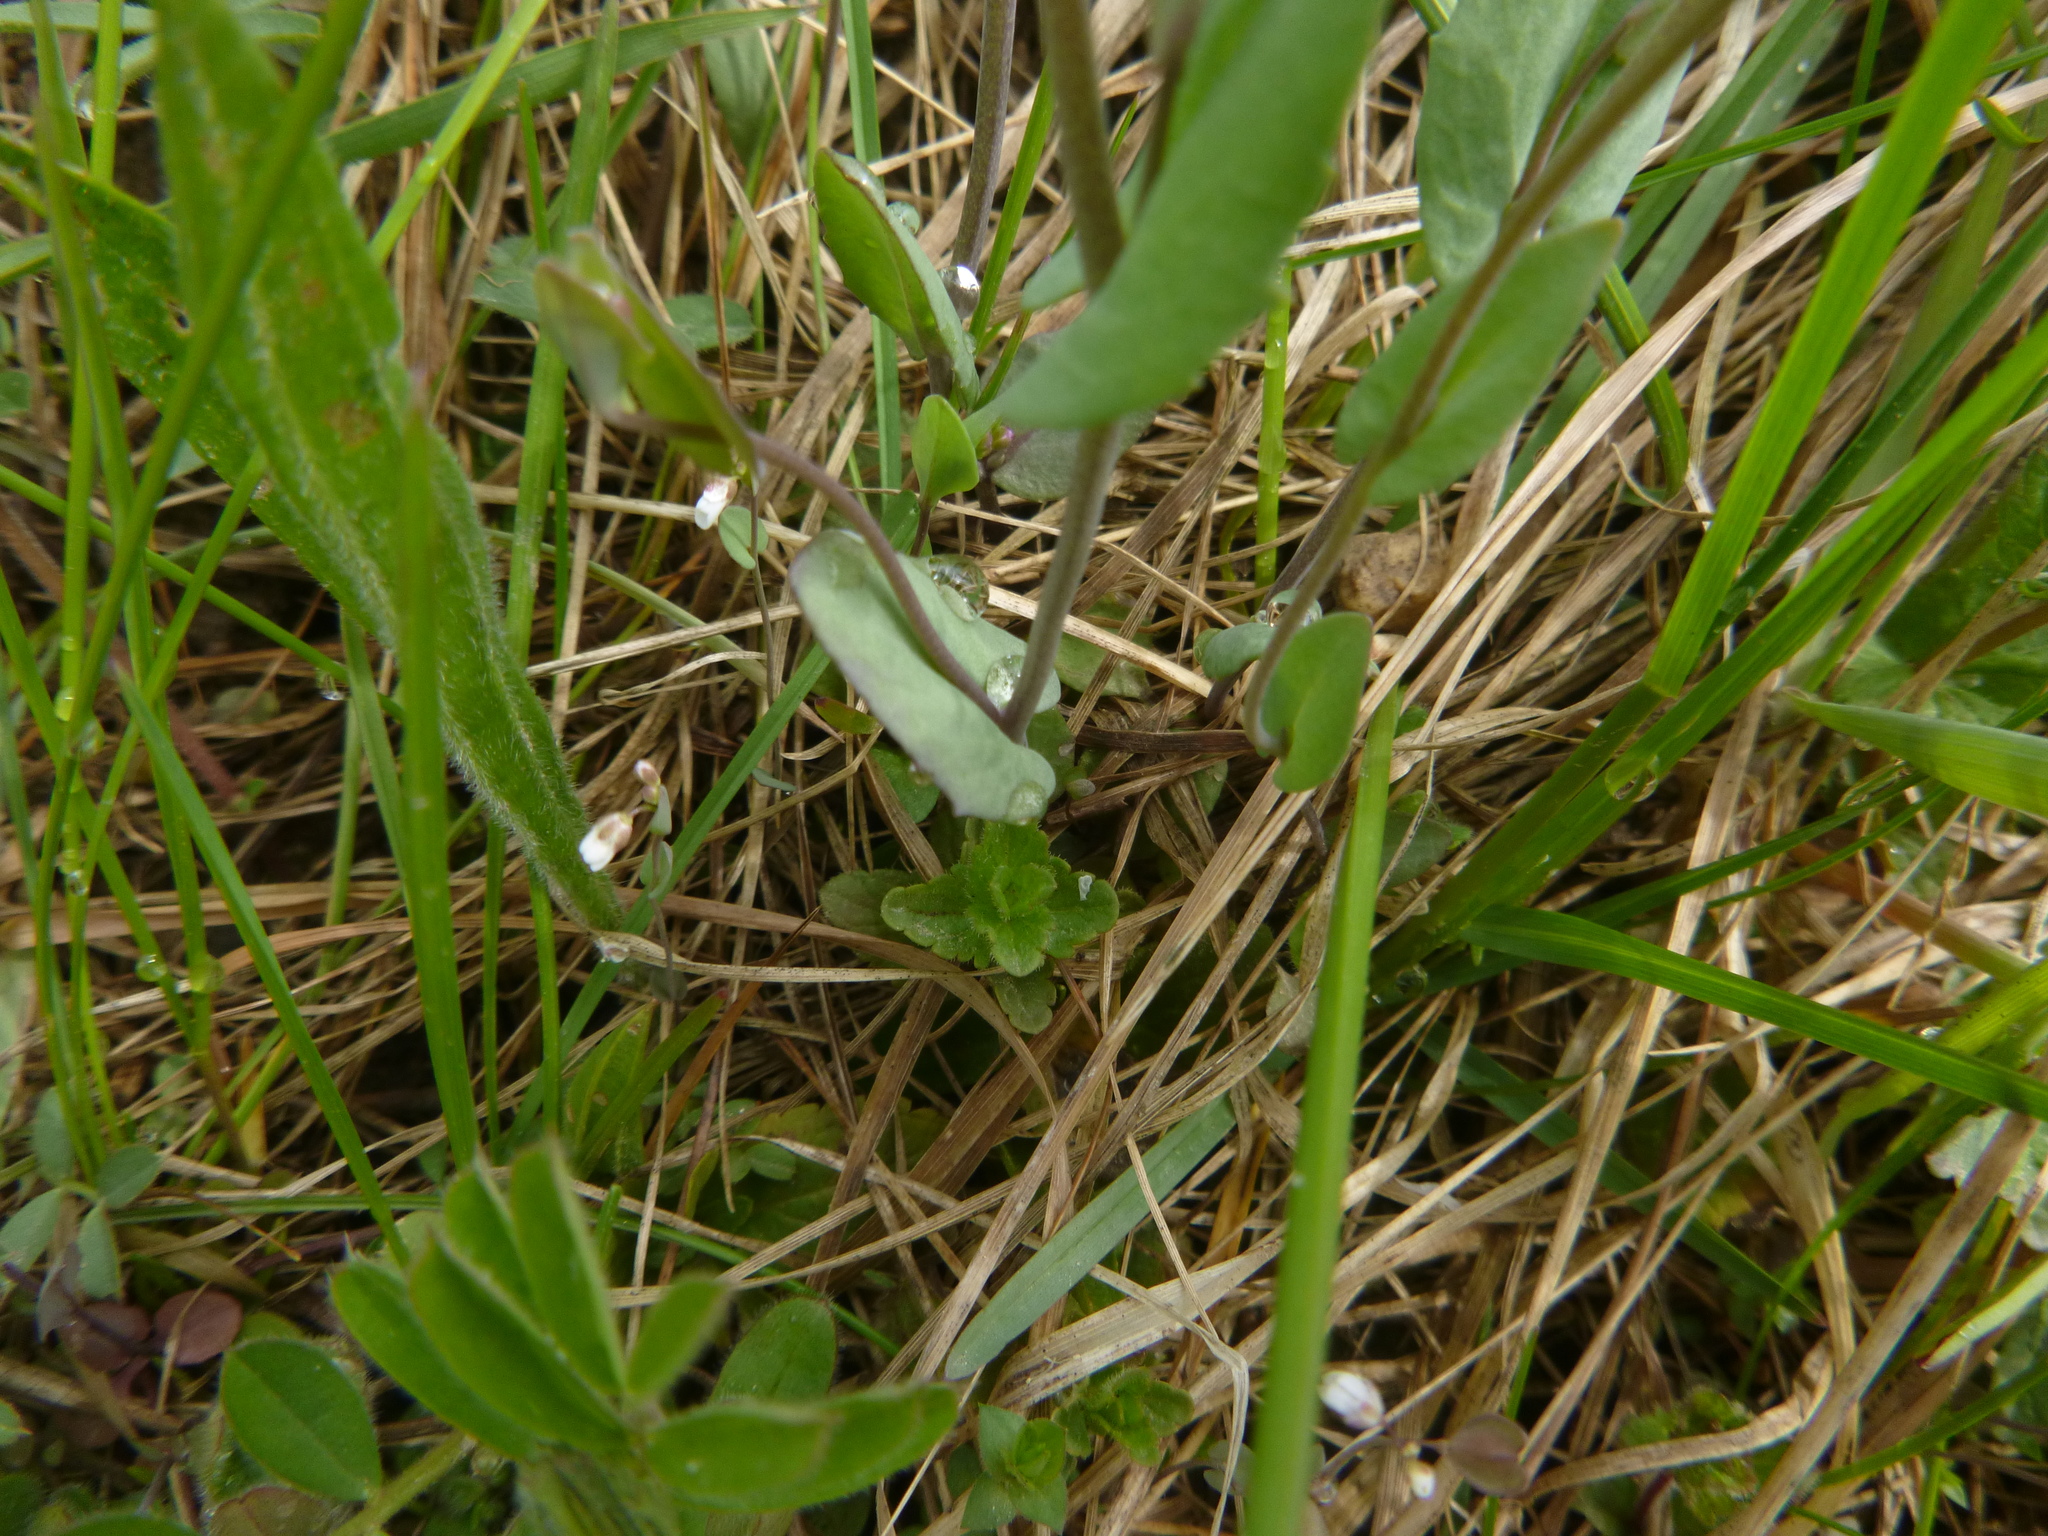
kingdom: Plantae
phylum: Tracheophyta
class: Magnoliopsida
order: Brassicales
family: Brassicaceae
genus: Noccaea
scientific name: Noccaea perfoliata
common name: Perfoliate pennycress
